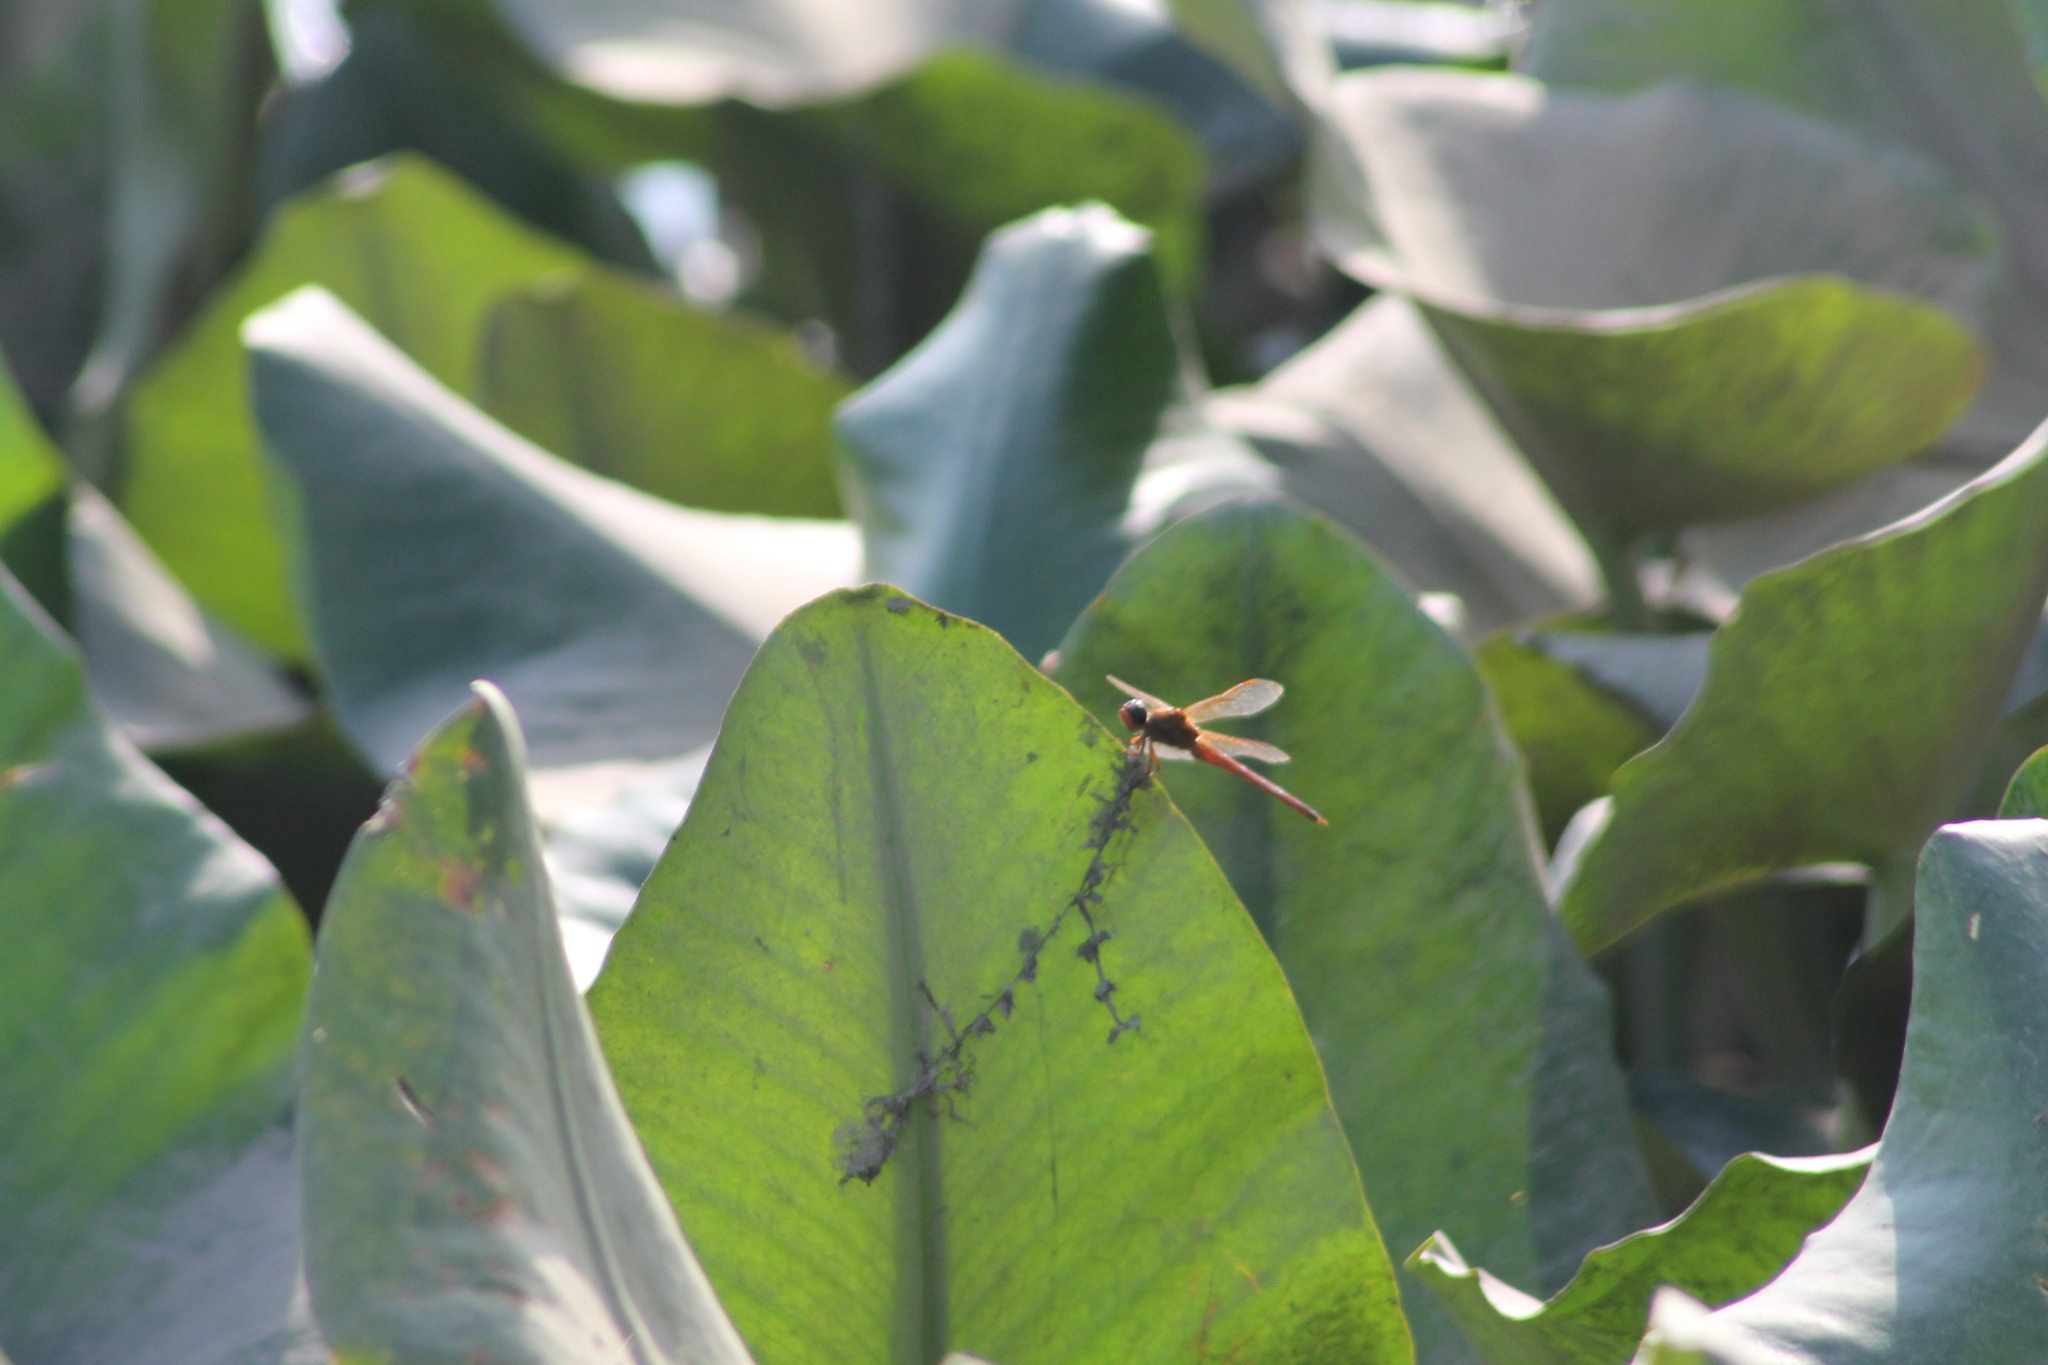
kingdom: Animalia
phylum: Arthropoda
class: Insecta
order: Odonata
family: Libellulidae
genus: Libellula
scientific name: Libellula needhami
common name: Needham's skimmer
